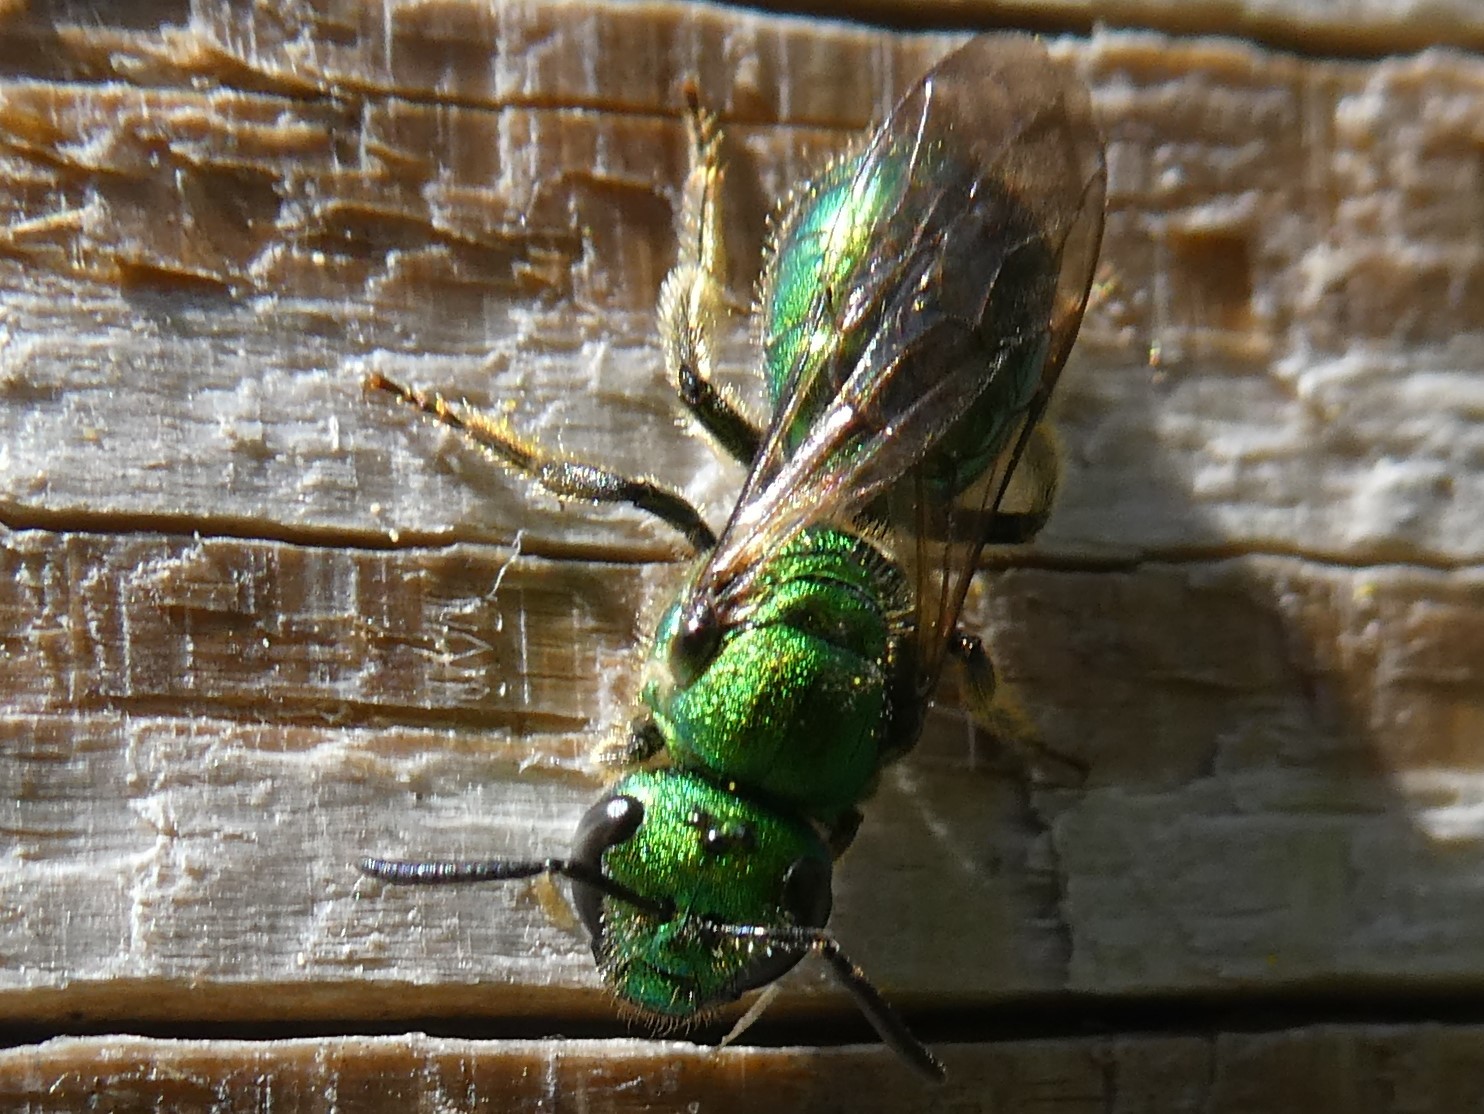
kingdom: Animalia
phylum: Arthropoda
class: Insecta
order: Hymenoptera
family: Halictidae
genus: Augochlora
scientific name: Augochlora pura
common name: Pure green sweat bee
